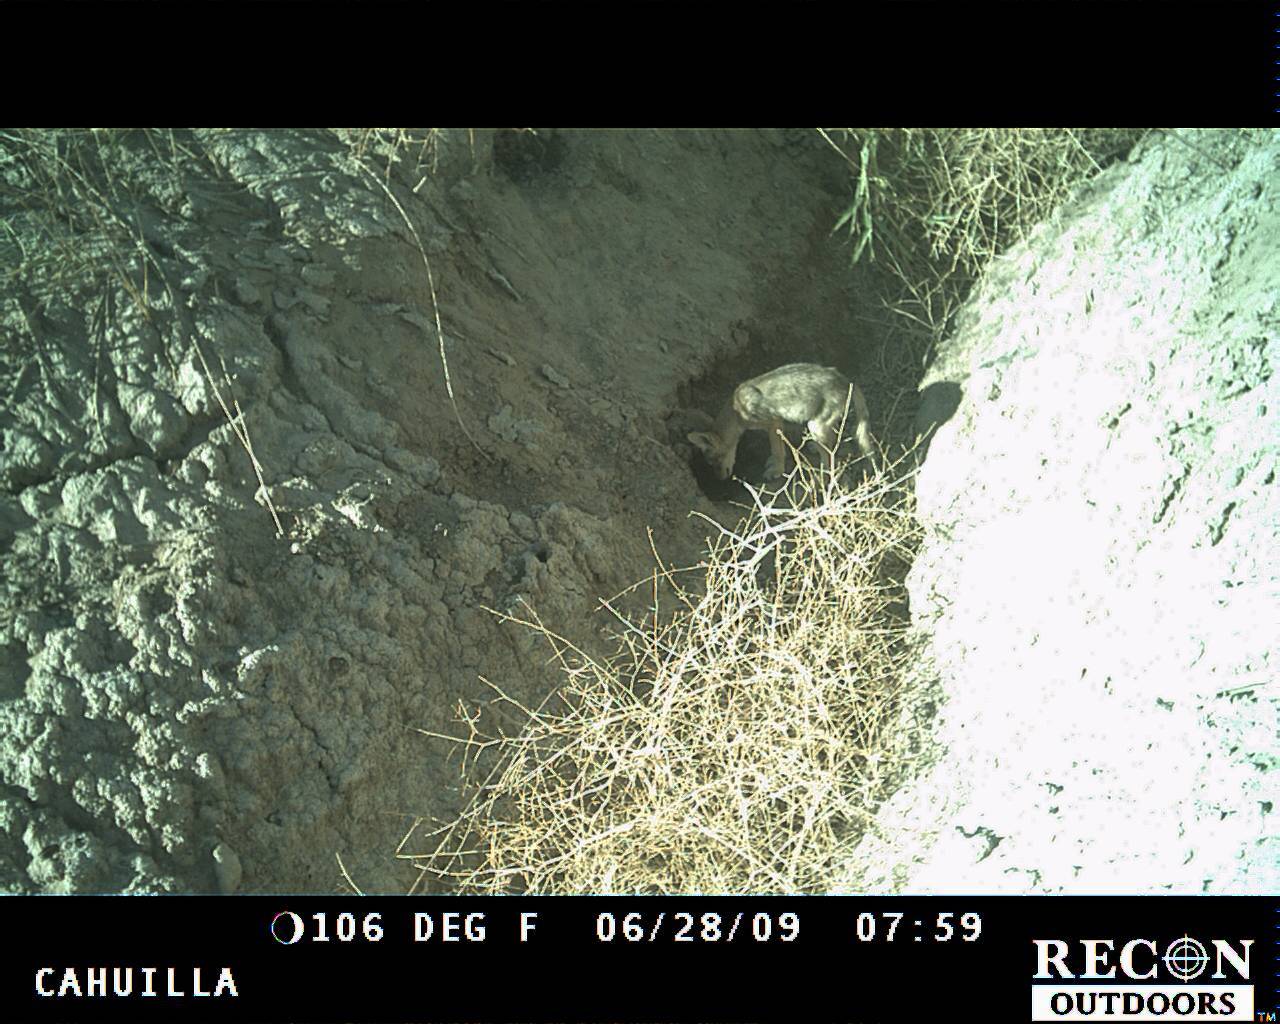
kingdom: Animalia
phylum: Chordata
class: Mammalia
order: Carnivora
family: Canidae
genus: Canis
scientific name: Canis latrans
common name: Coyote
